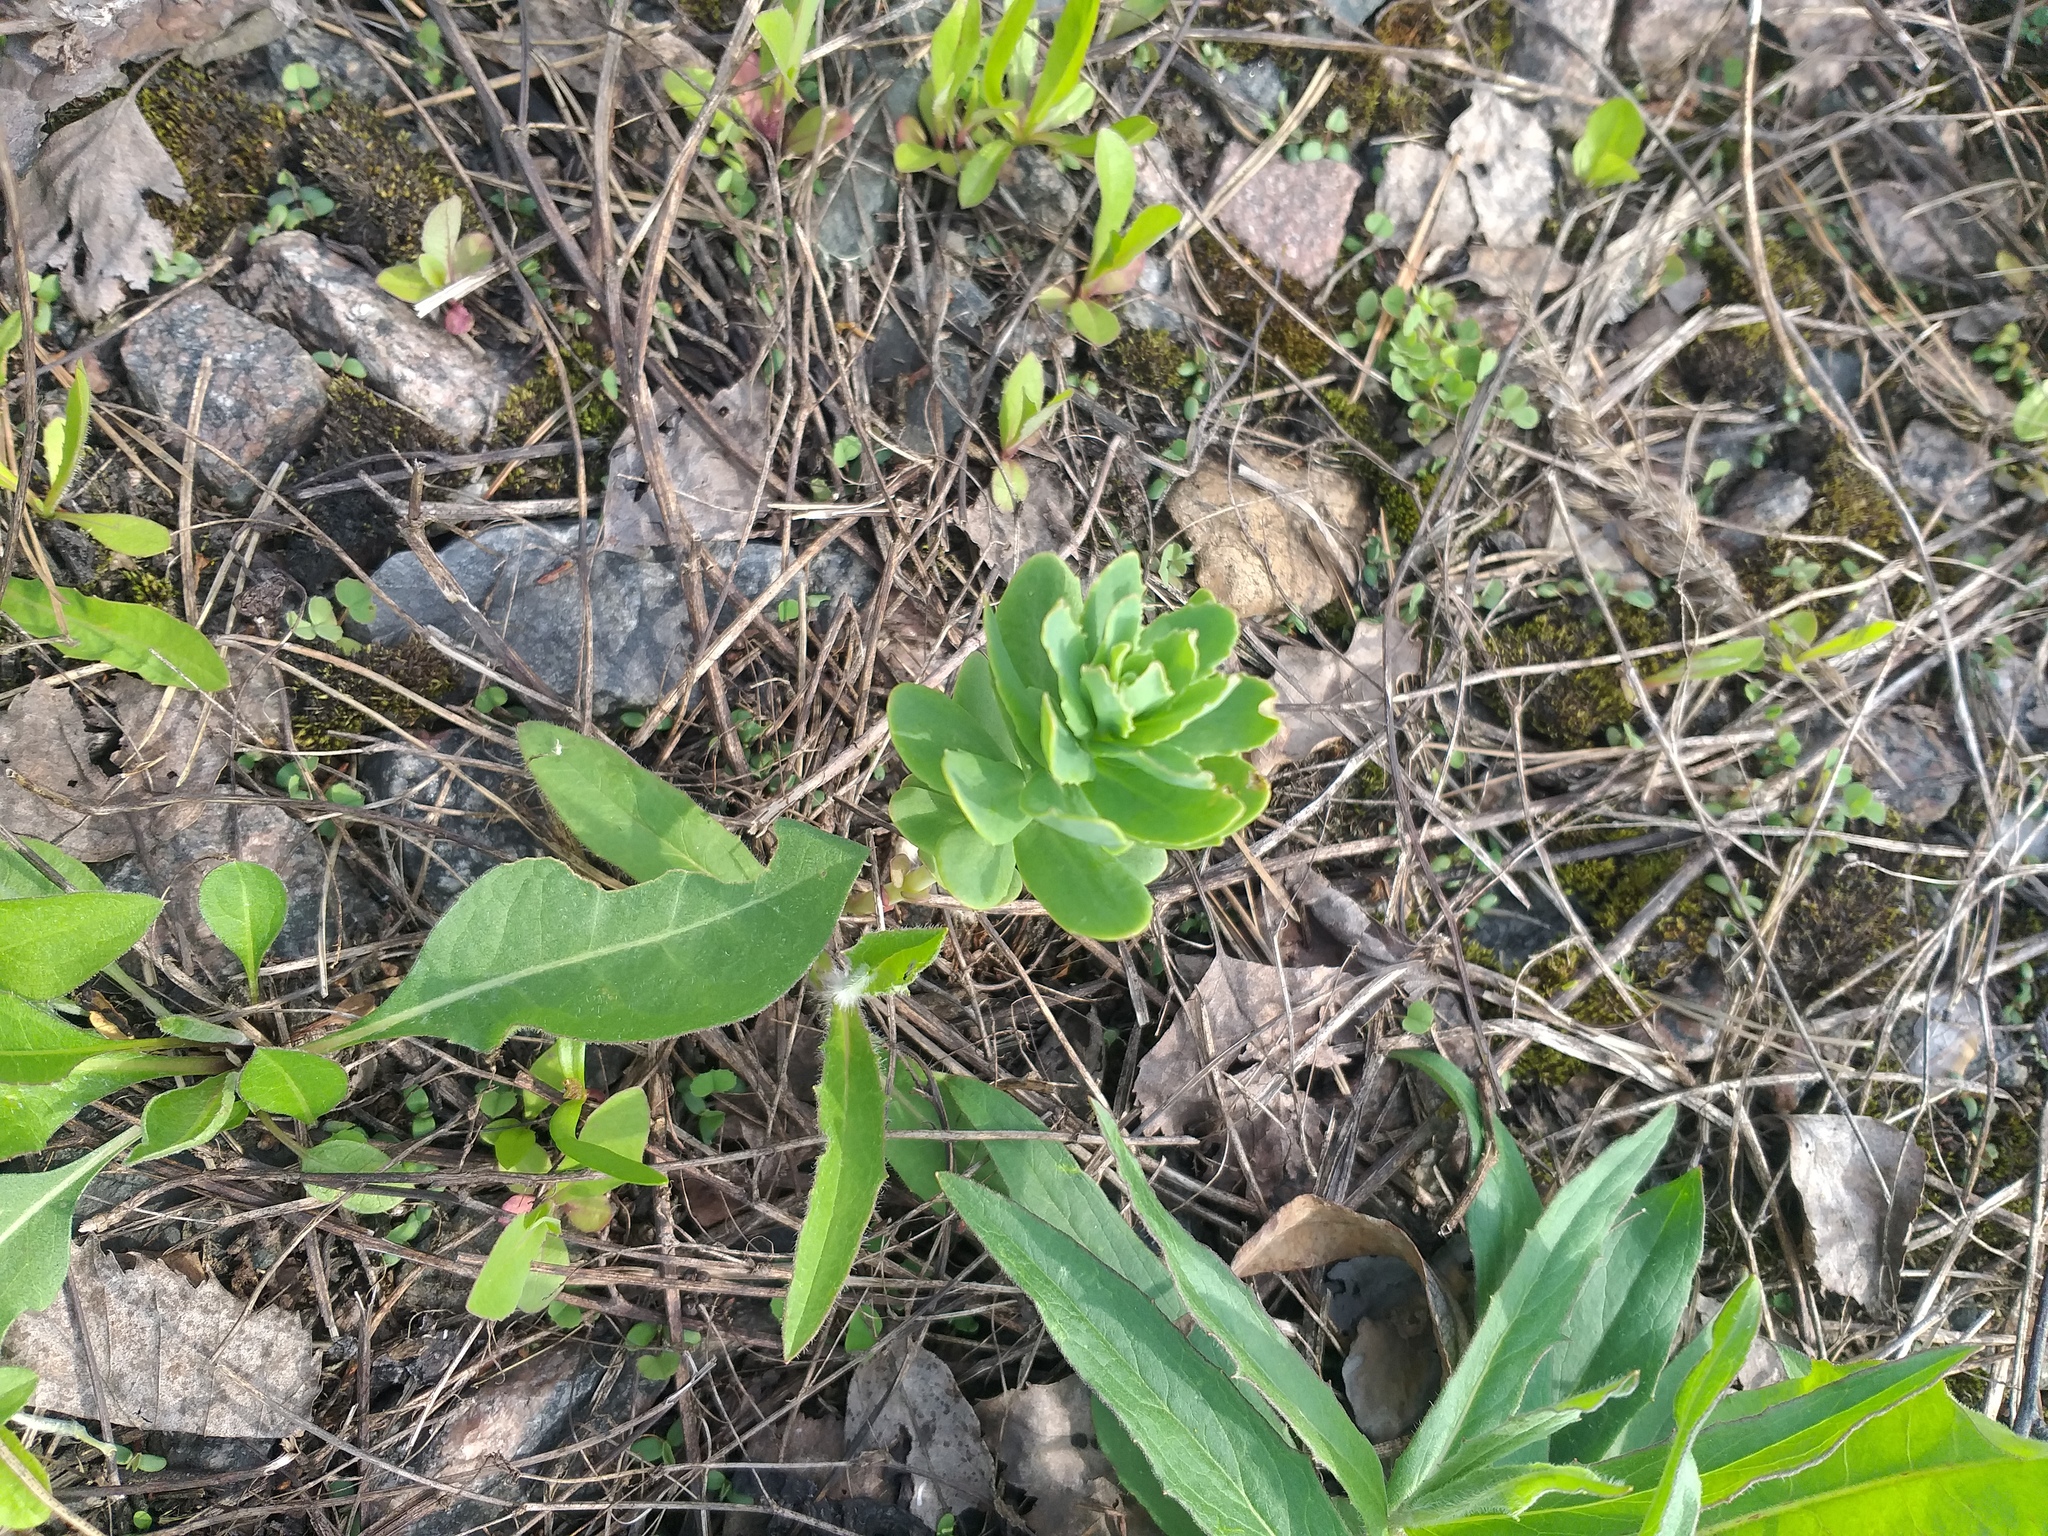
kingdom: Plantae
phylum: Tracheophyta
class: Magnoliopsida
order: Saxifragales
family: Crassulaceae
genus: Hylotelephium
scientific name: Hylotelephium telephium
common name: Live-forever
